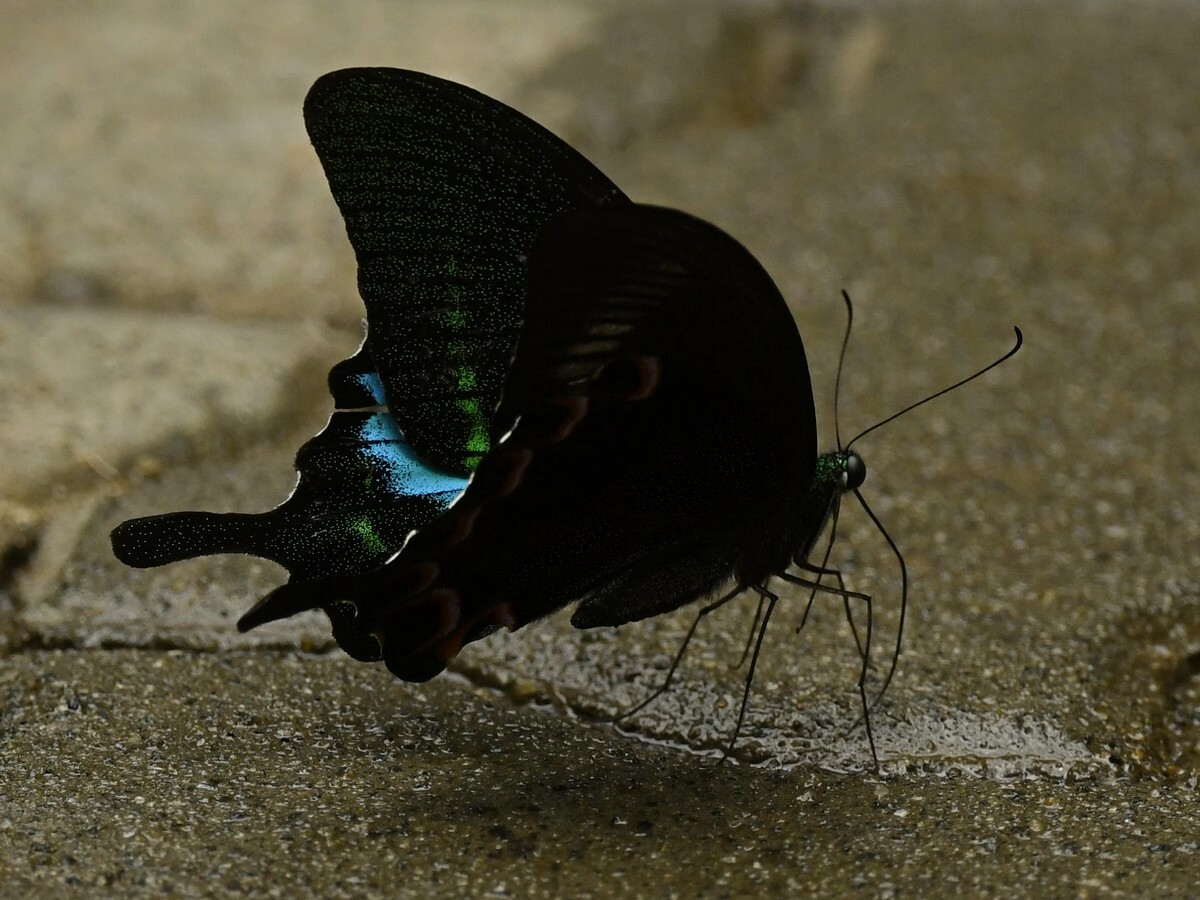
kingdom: Animalia
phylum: Arthropoda
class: Insecta
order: Lepidoptera
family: Papilionidae
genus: Papilio
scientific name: Papilio paris
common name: Paris peacock
